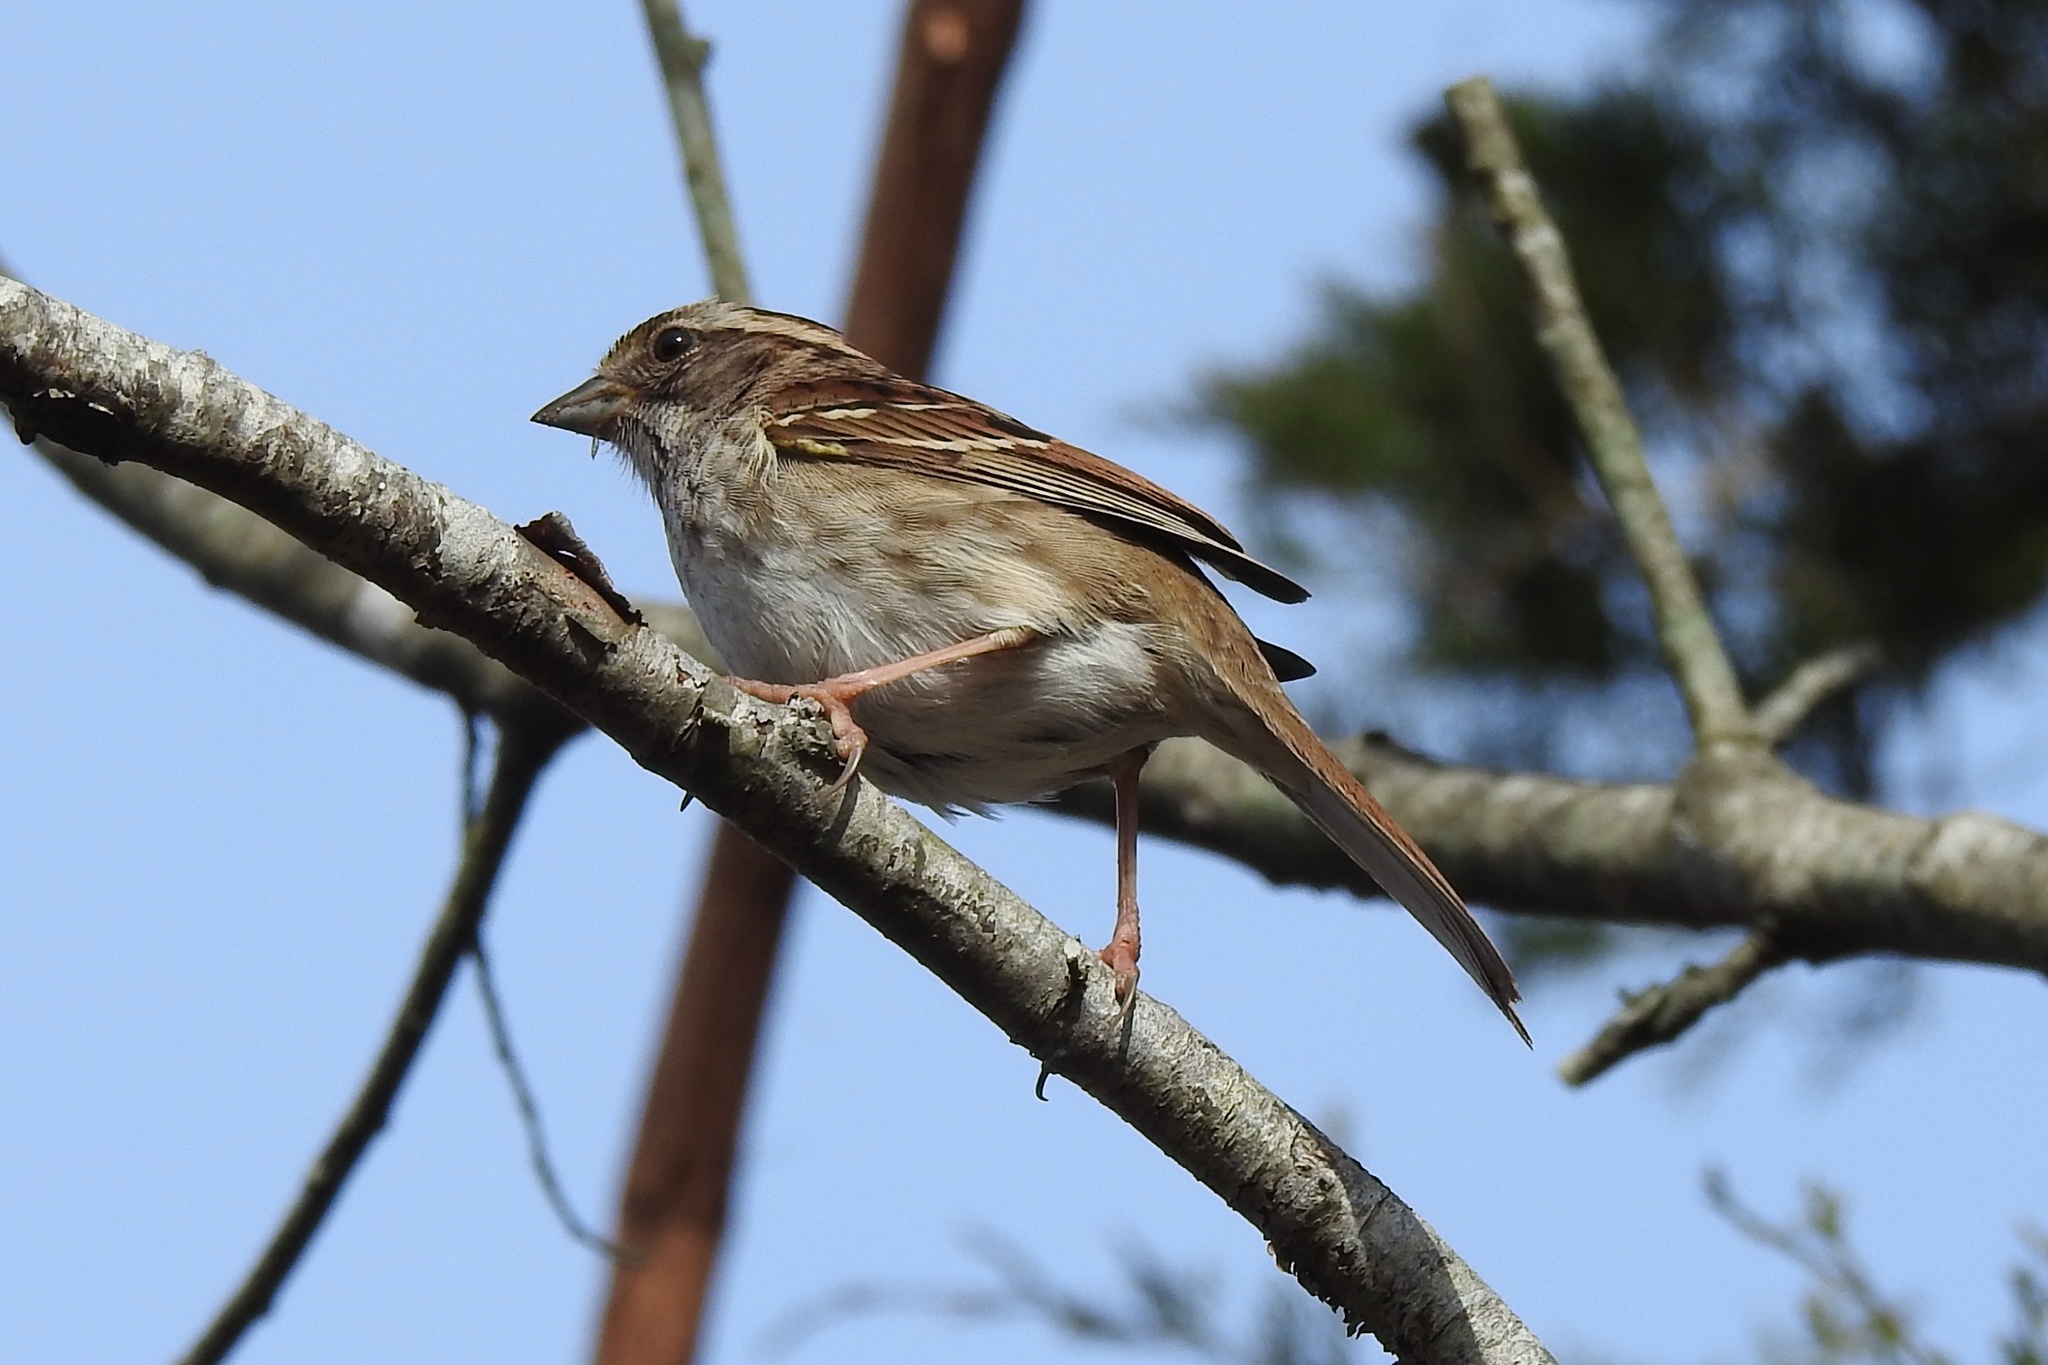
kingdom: Animalia
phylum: Chordata
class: Aves
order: Passeriformes
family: Passerellidae
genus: Zonotrichia
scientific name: Zonotrichia albicollis
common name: White-throated sparrow
